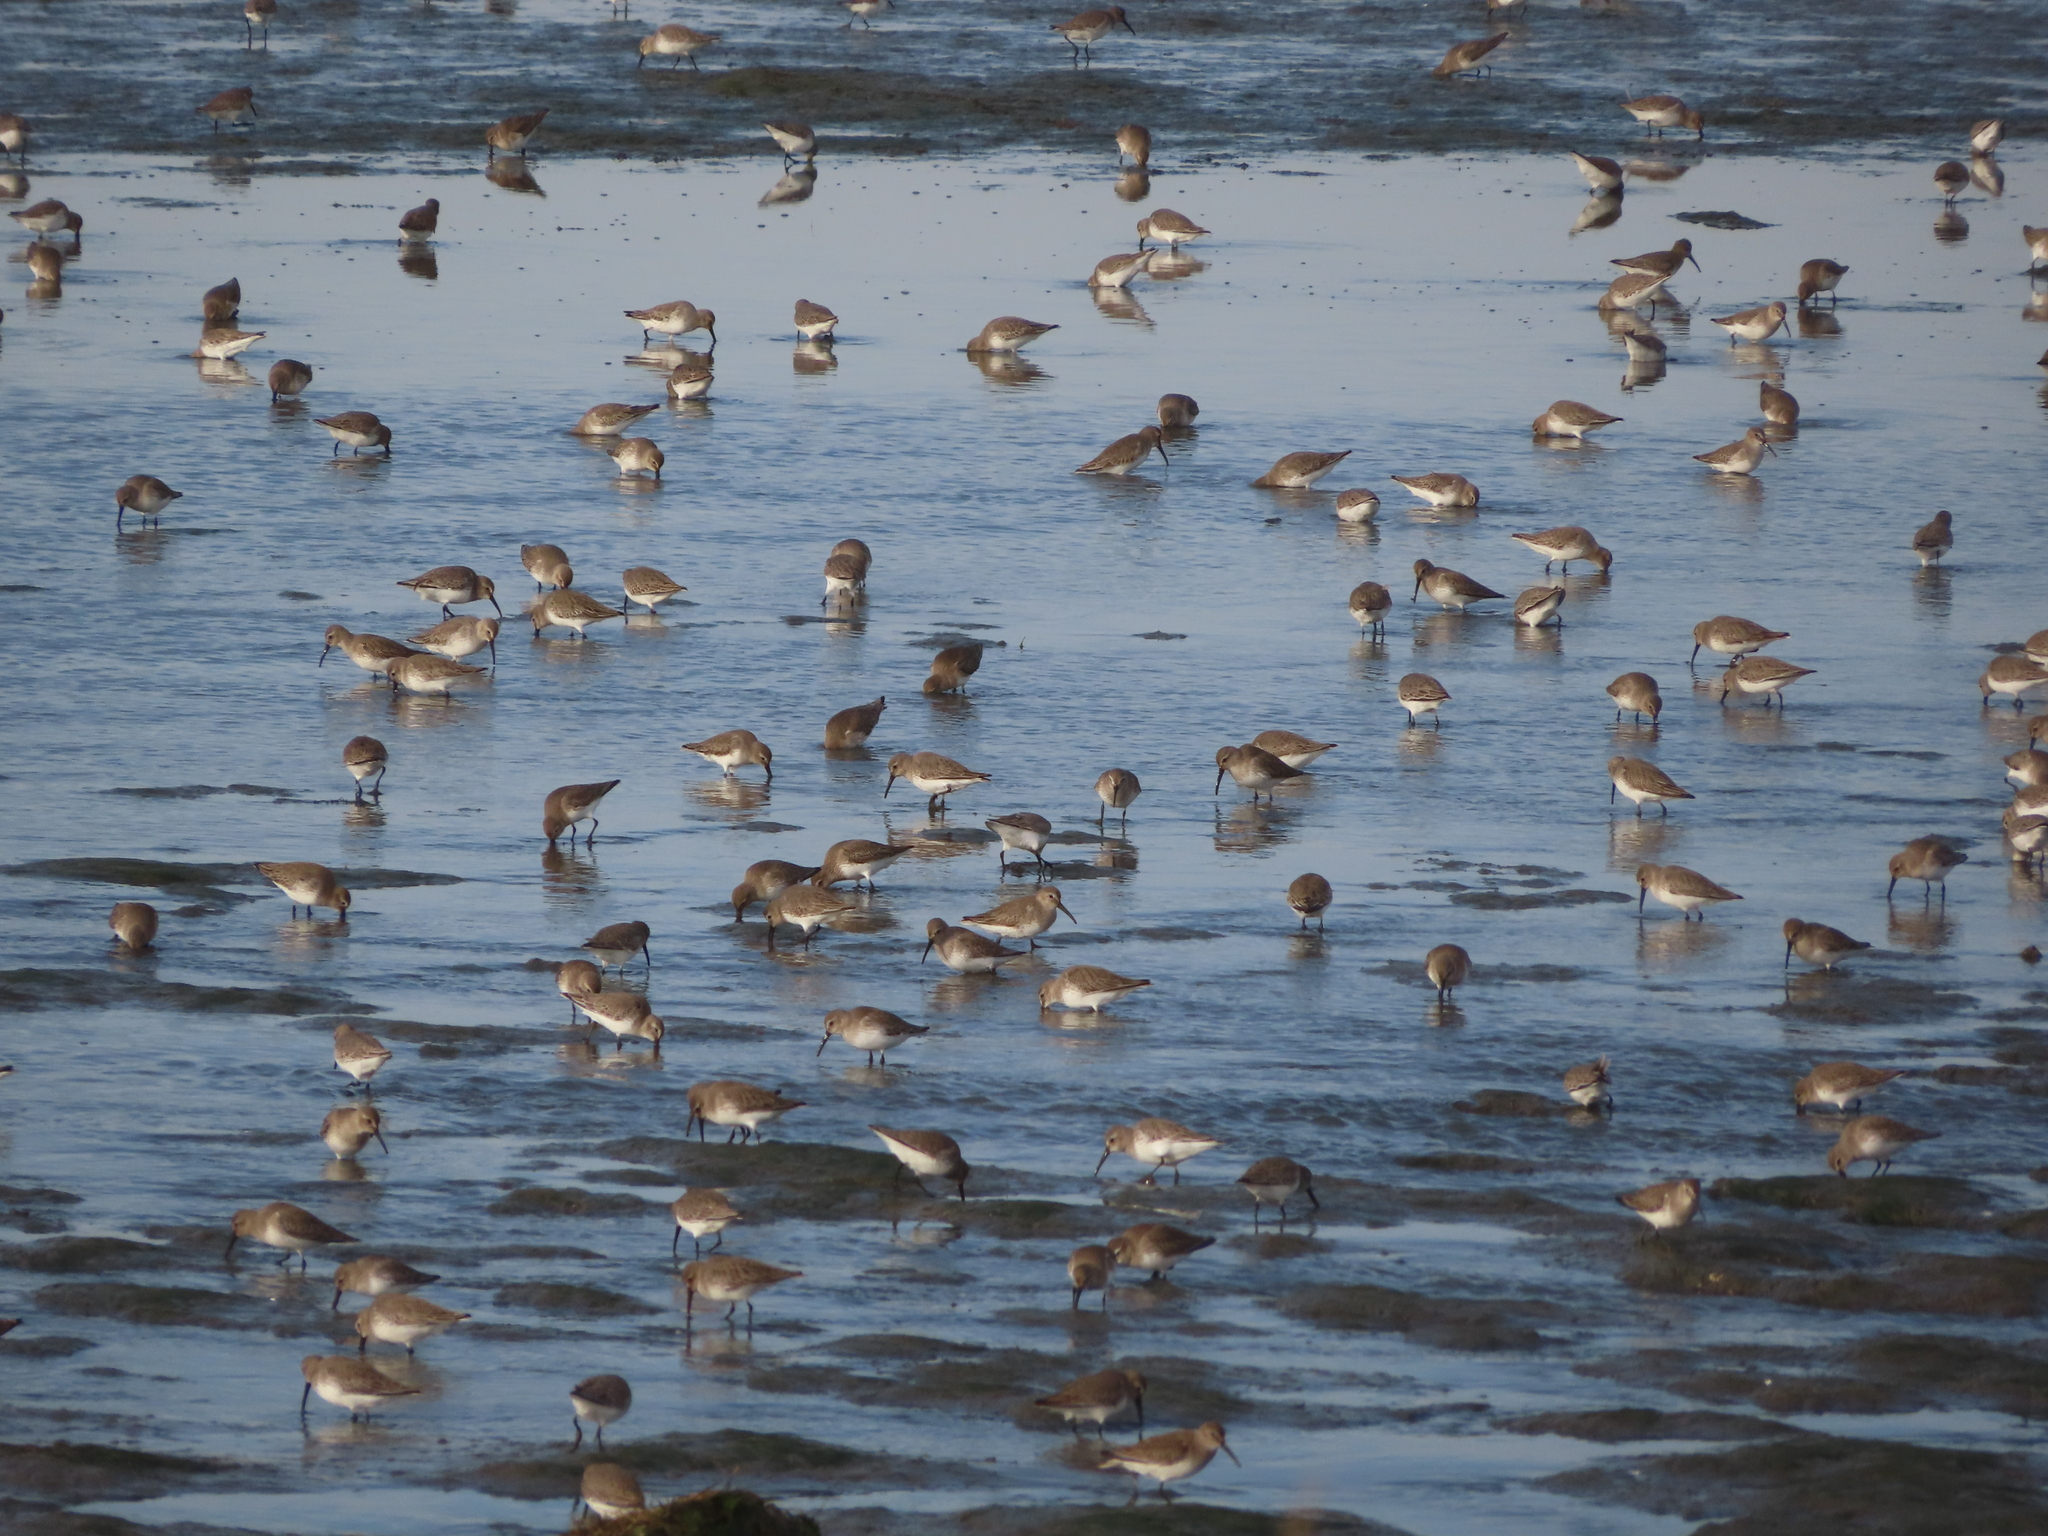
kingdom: Animalia
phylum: Chordata
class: Aves
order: Charadriiformes
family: Scolopacidae
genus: Calidris
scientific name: Calidris alpina
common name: Dunlin
